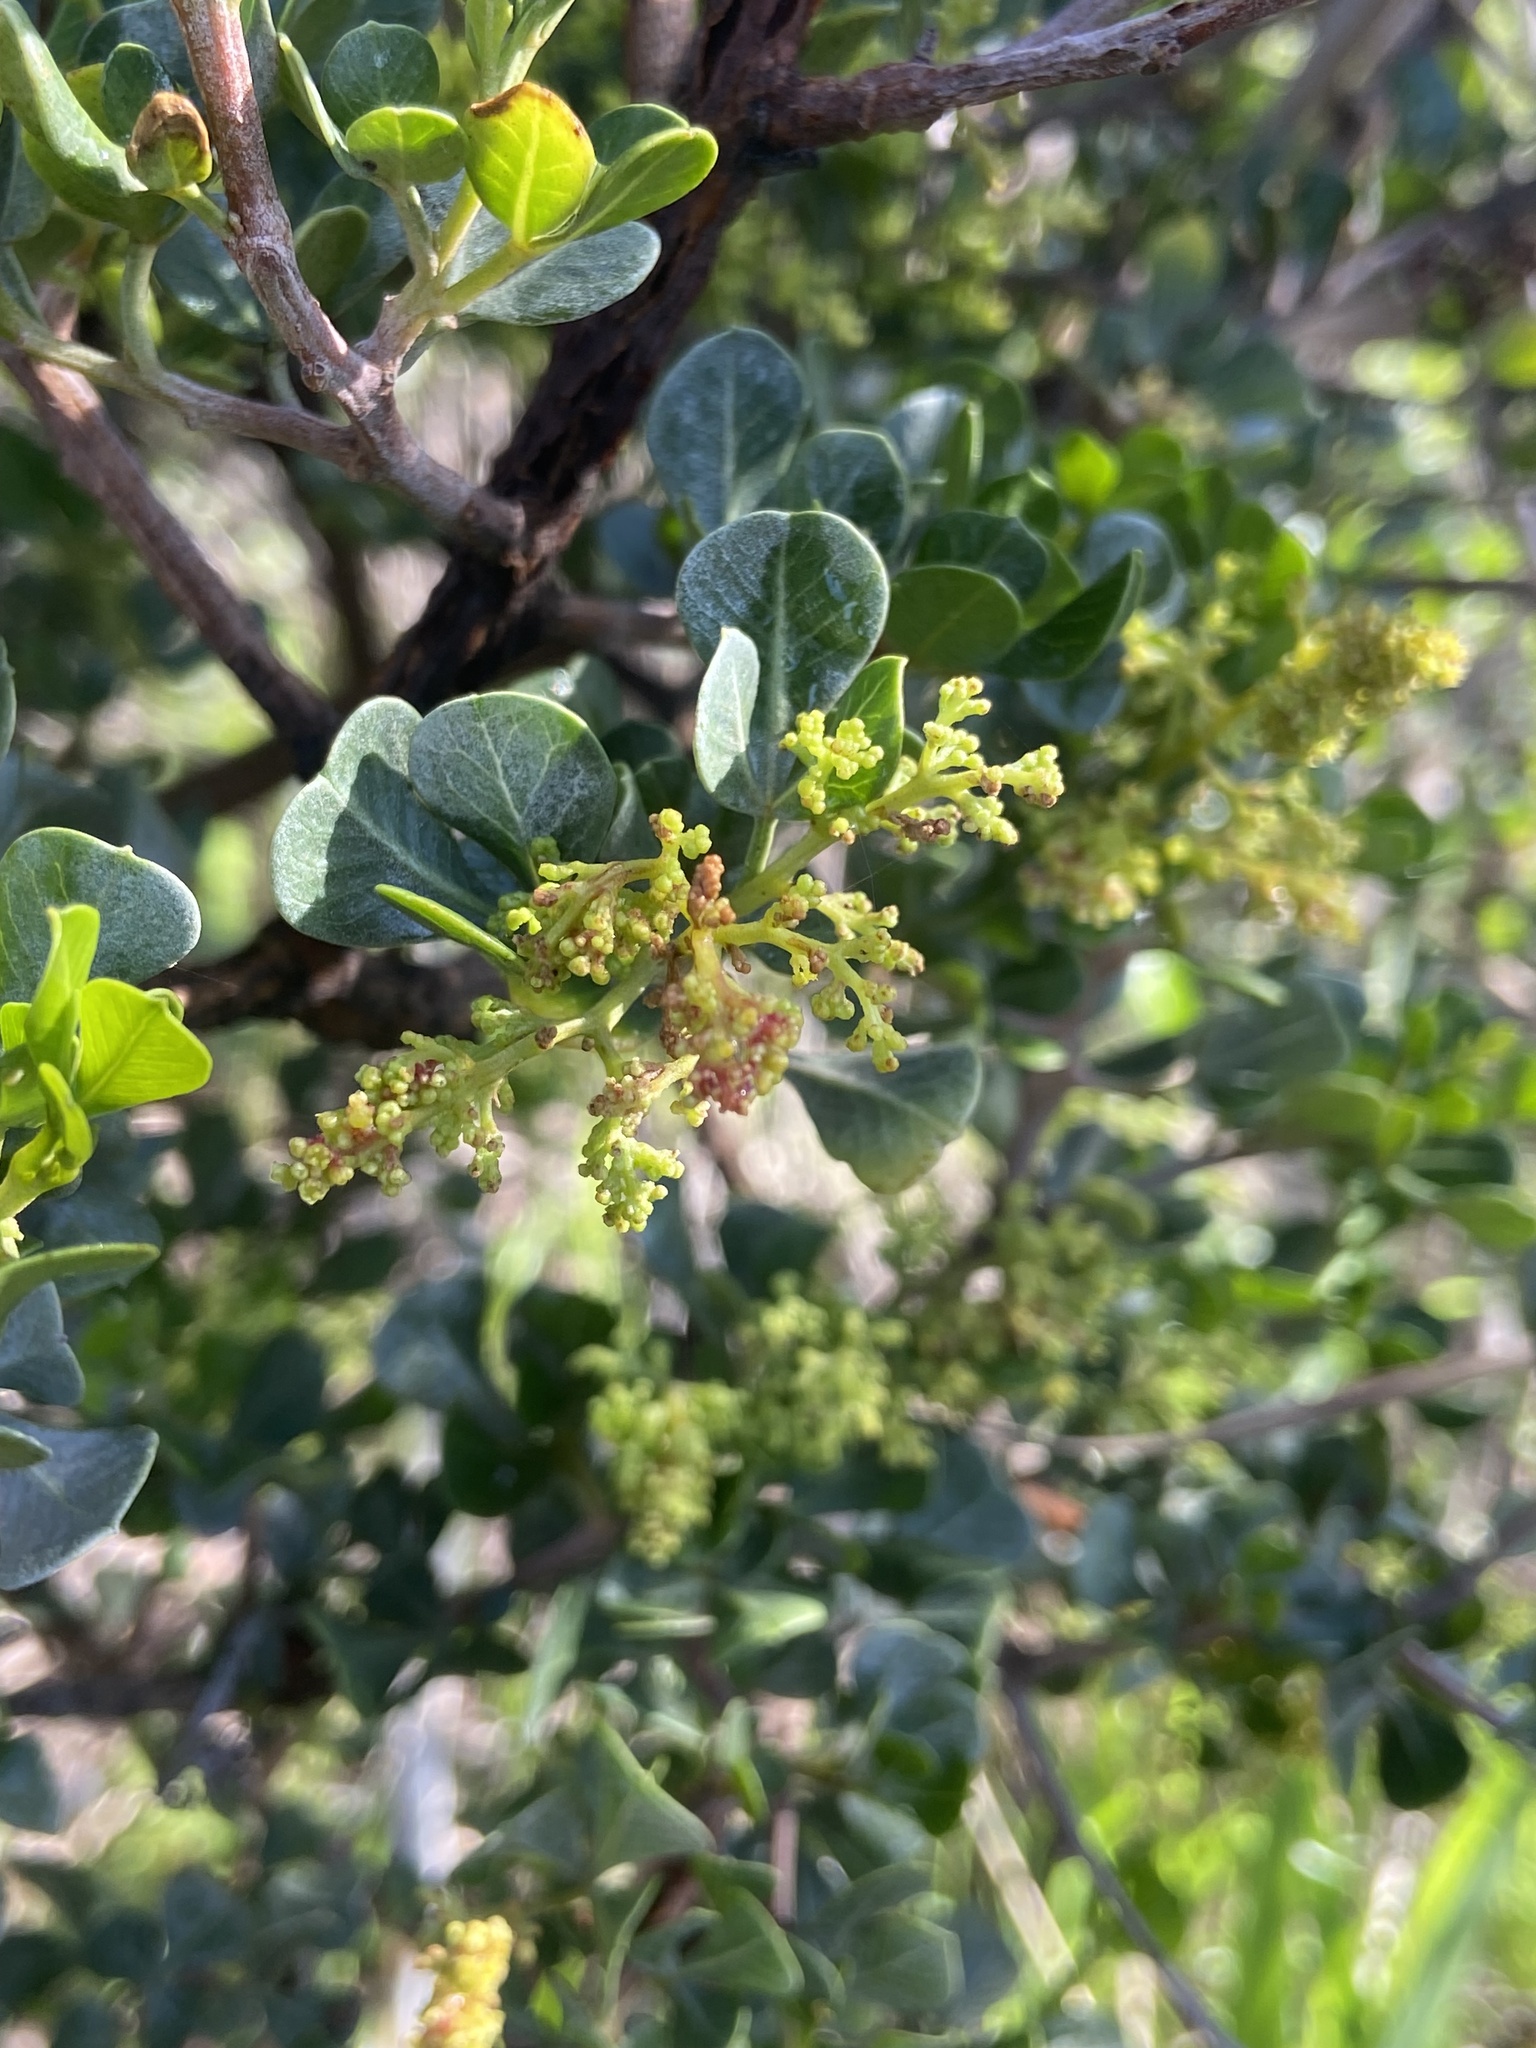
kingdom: Plantae
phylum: Tracheophyta
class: Magnoliopsida
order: Sapindales
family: Anacardiaceae
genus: Searsia
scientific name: Searsia glauca
